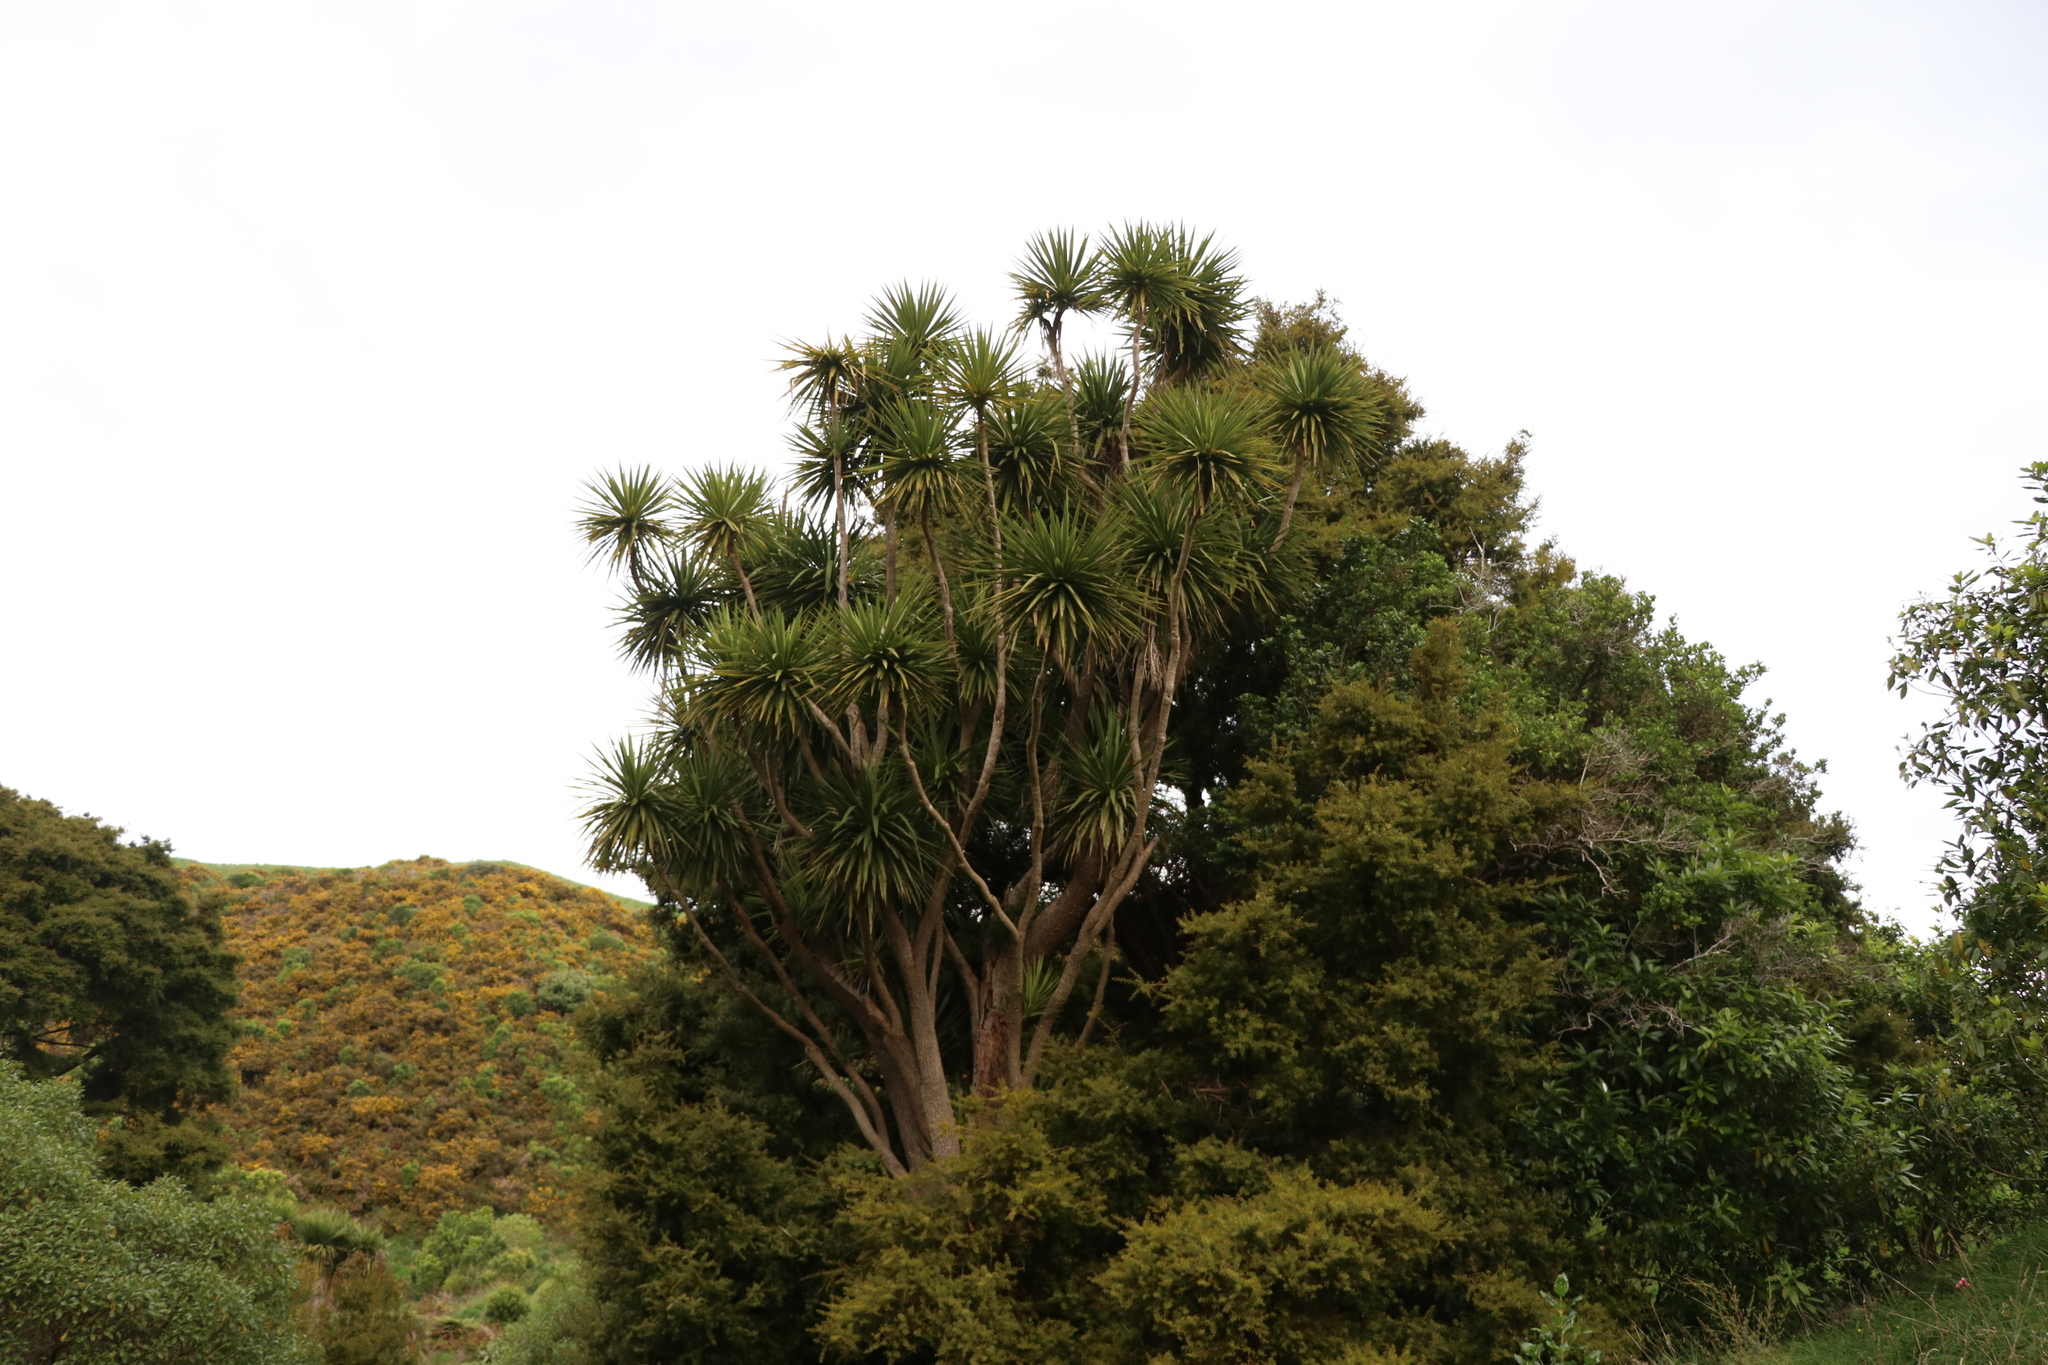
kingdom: Plantae
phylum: Tracheophyta
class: Liliopsida
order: Asparagales
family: Asparagaceae
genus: Cordyline
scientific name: Cordyline australis
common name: Cabbage-palm
